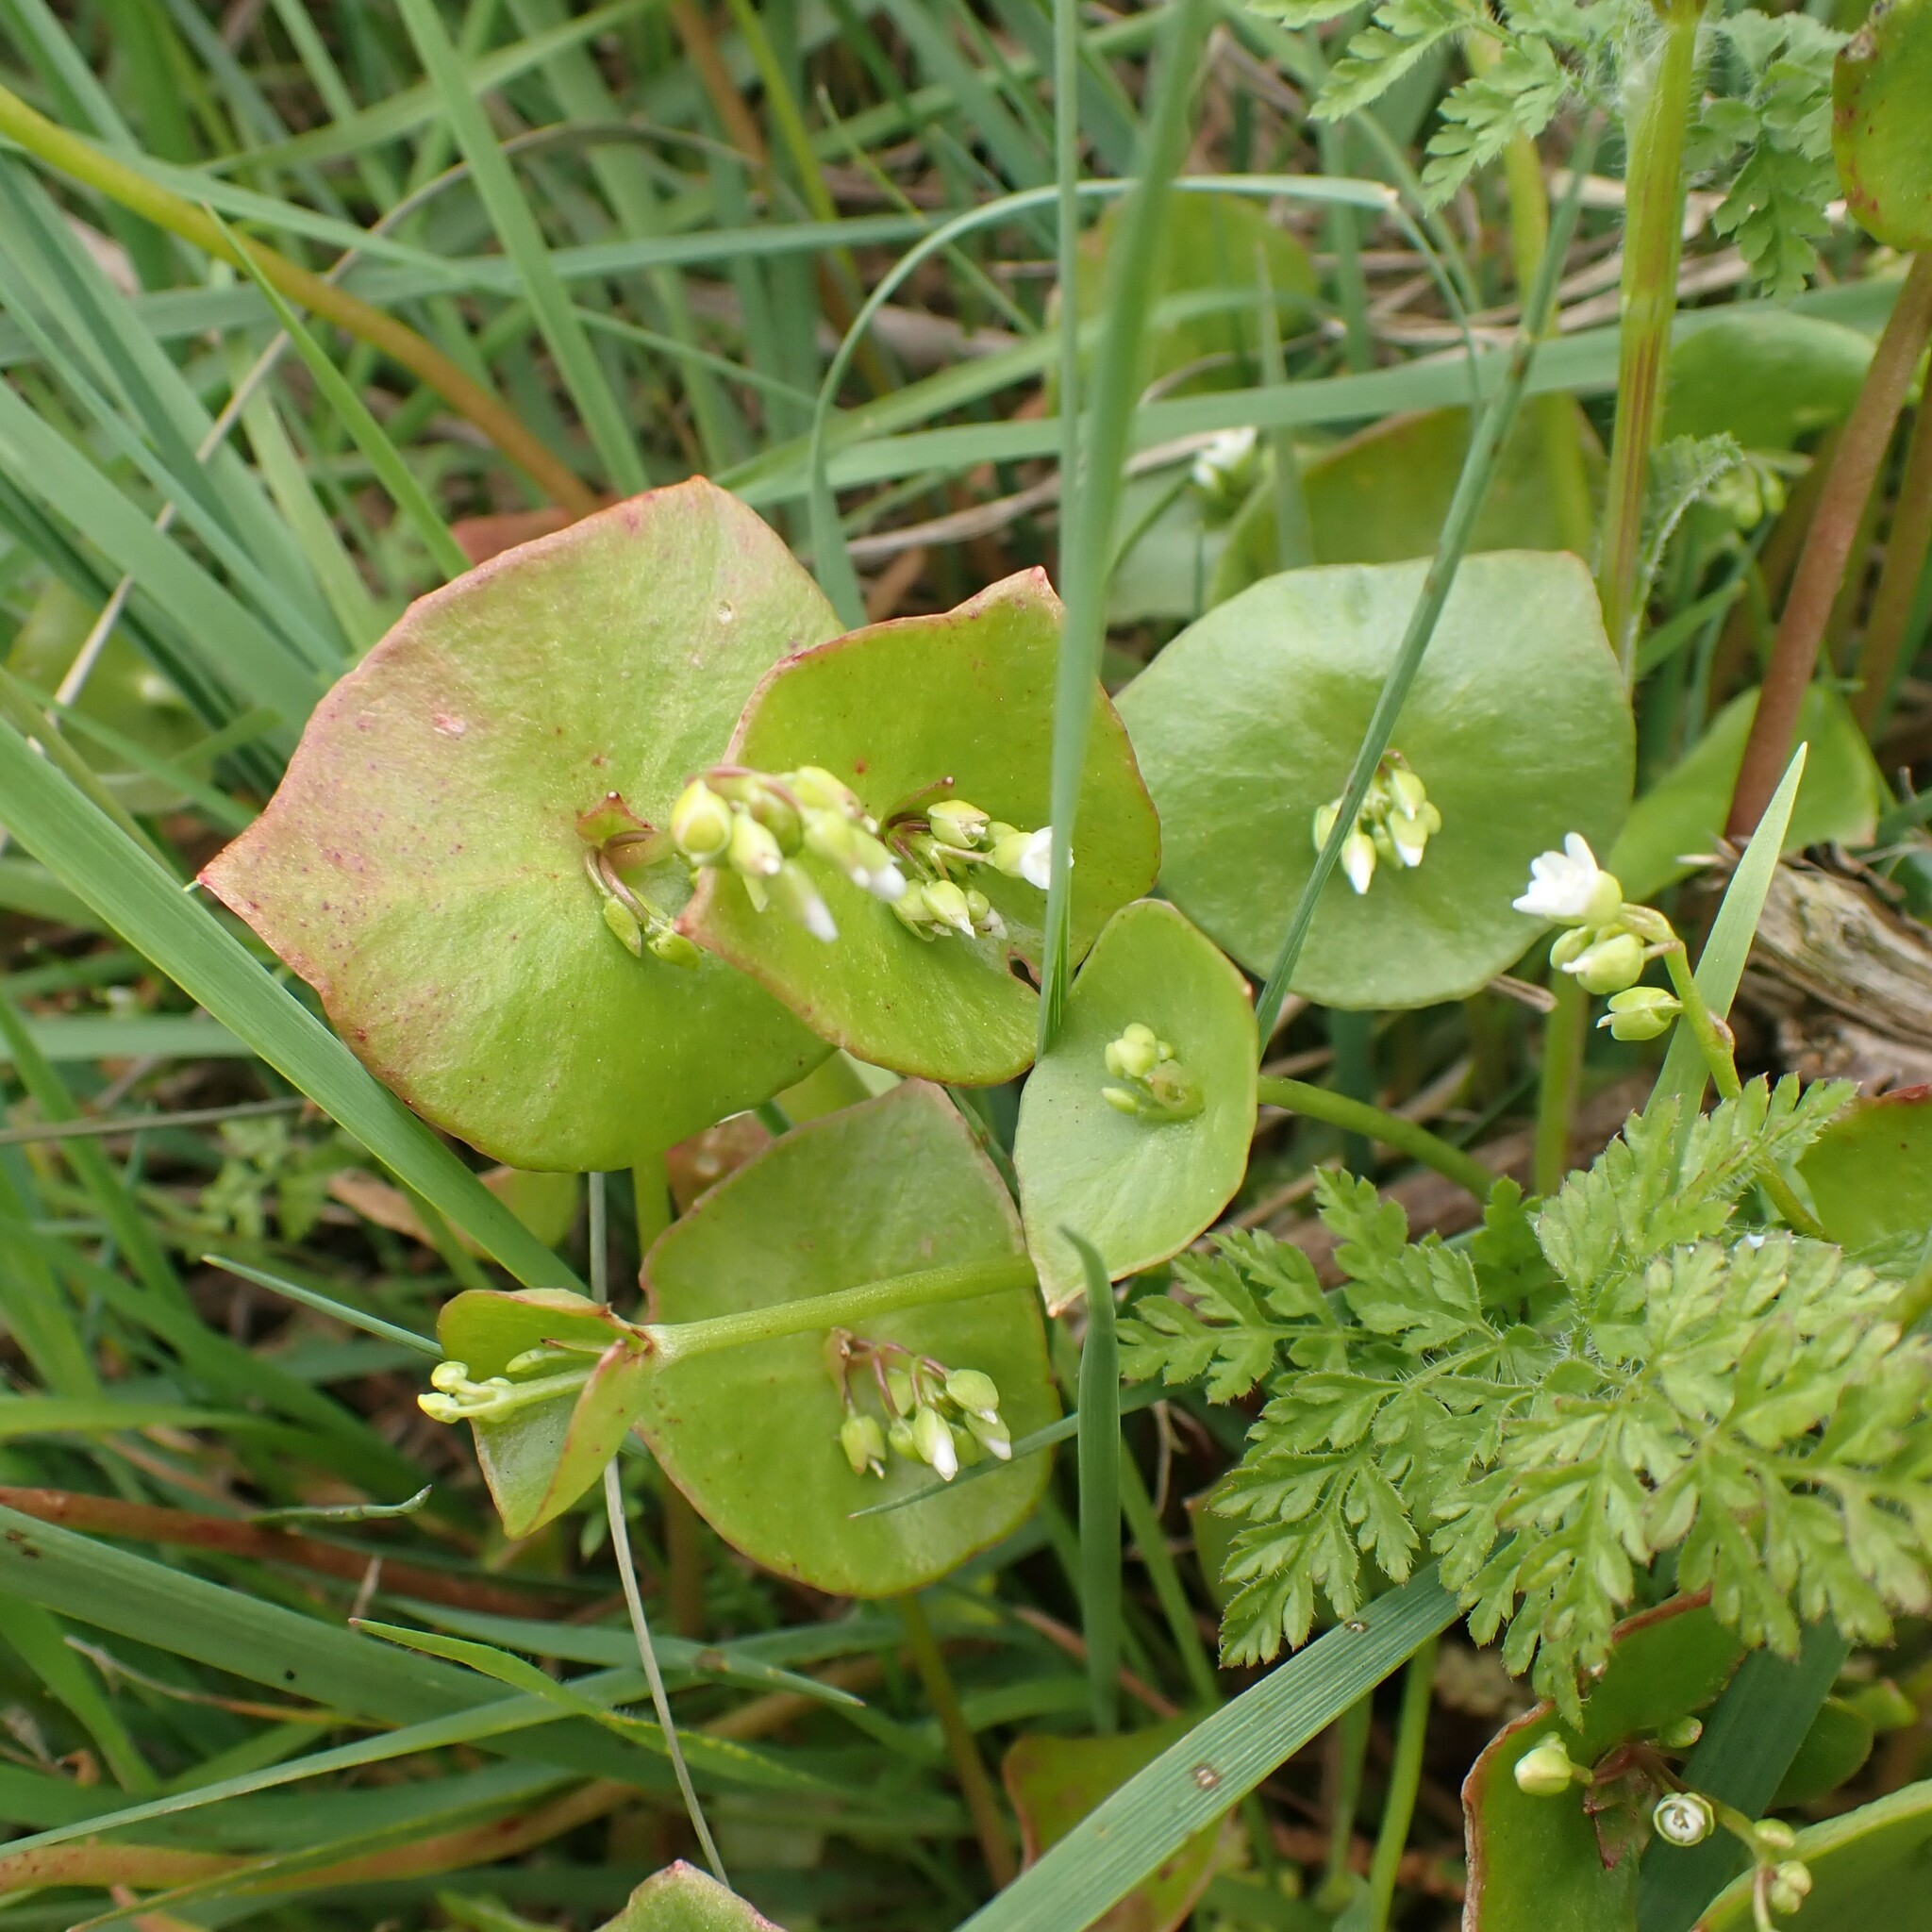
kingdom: Plantae
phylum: Tracheophyta
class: Magnoliopsida
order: Caryophyllales
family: Montiaceae
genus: Claytonia
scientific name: Claytonia perfoliata
